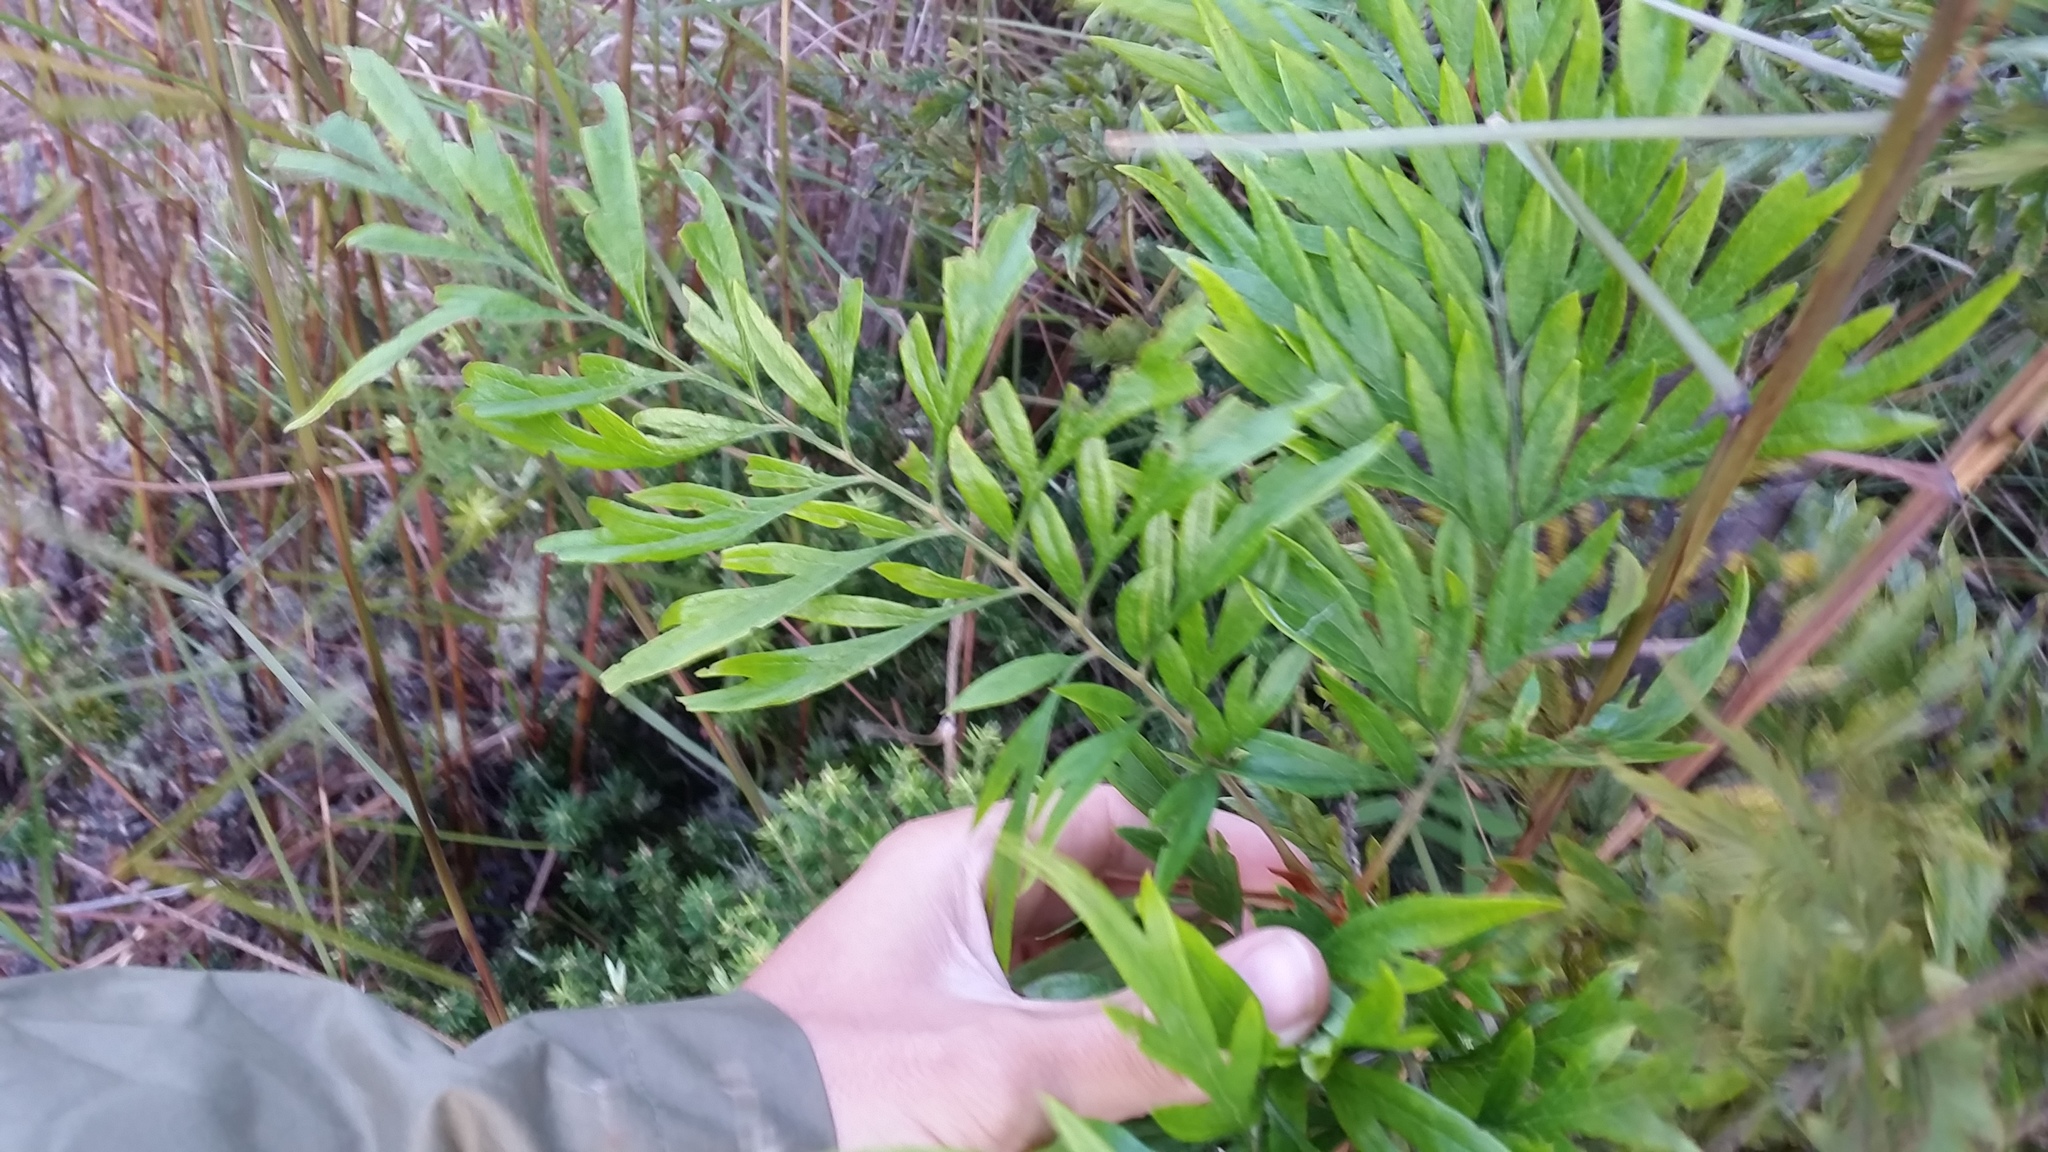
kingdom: Plantae
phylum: Tracheophyta
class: Magnoliopsida
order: Proteales
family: Proteaceae
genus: Grevillea
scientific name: Grevillea robusta
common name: Silkoak
